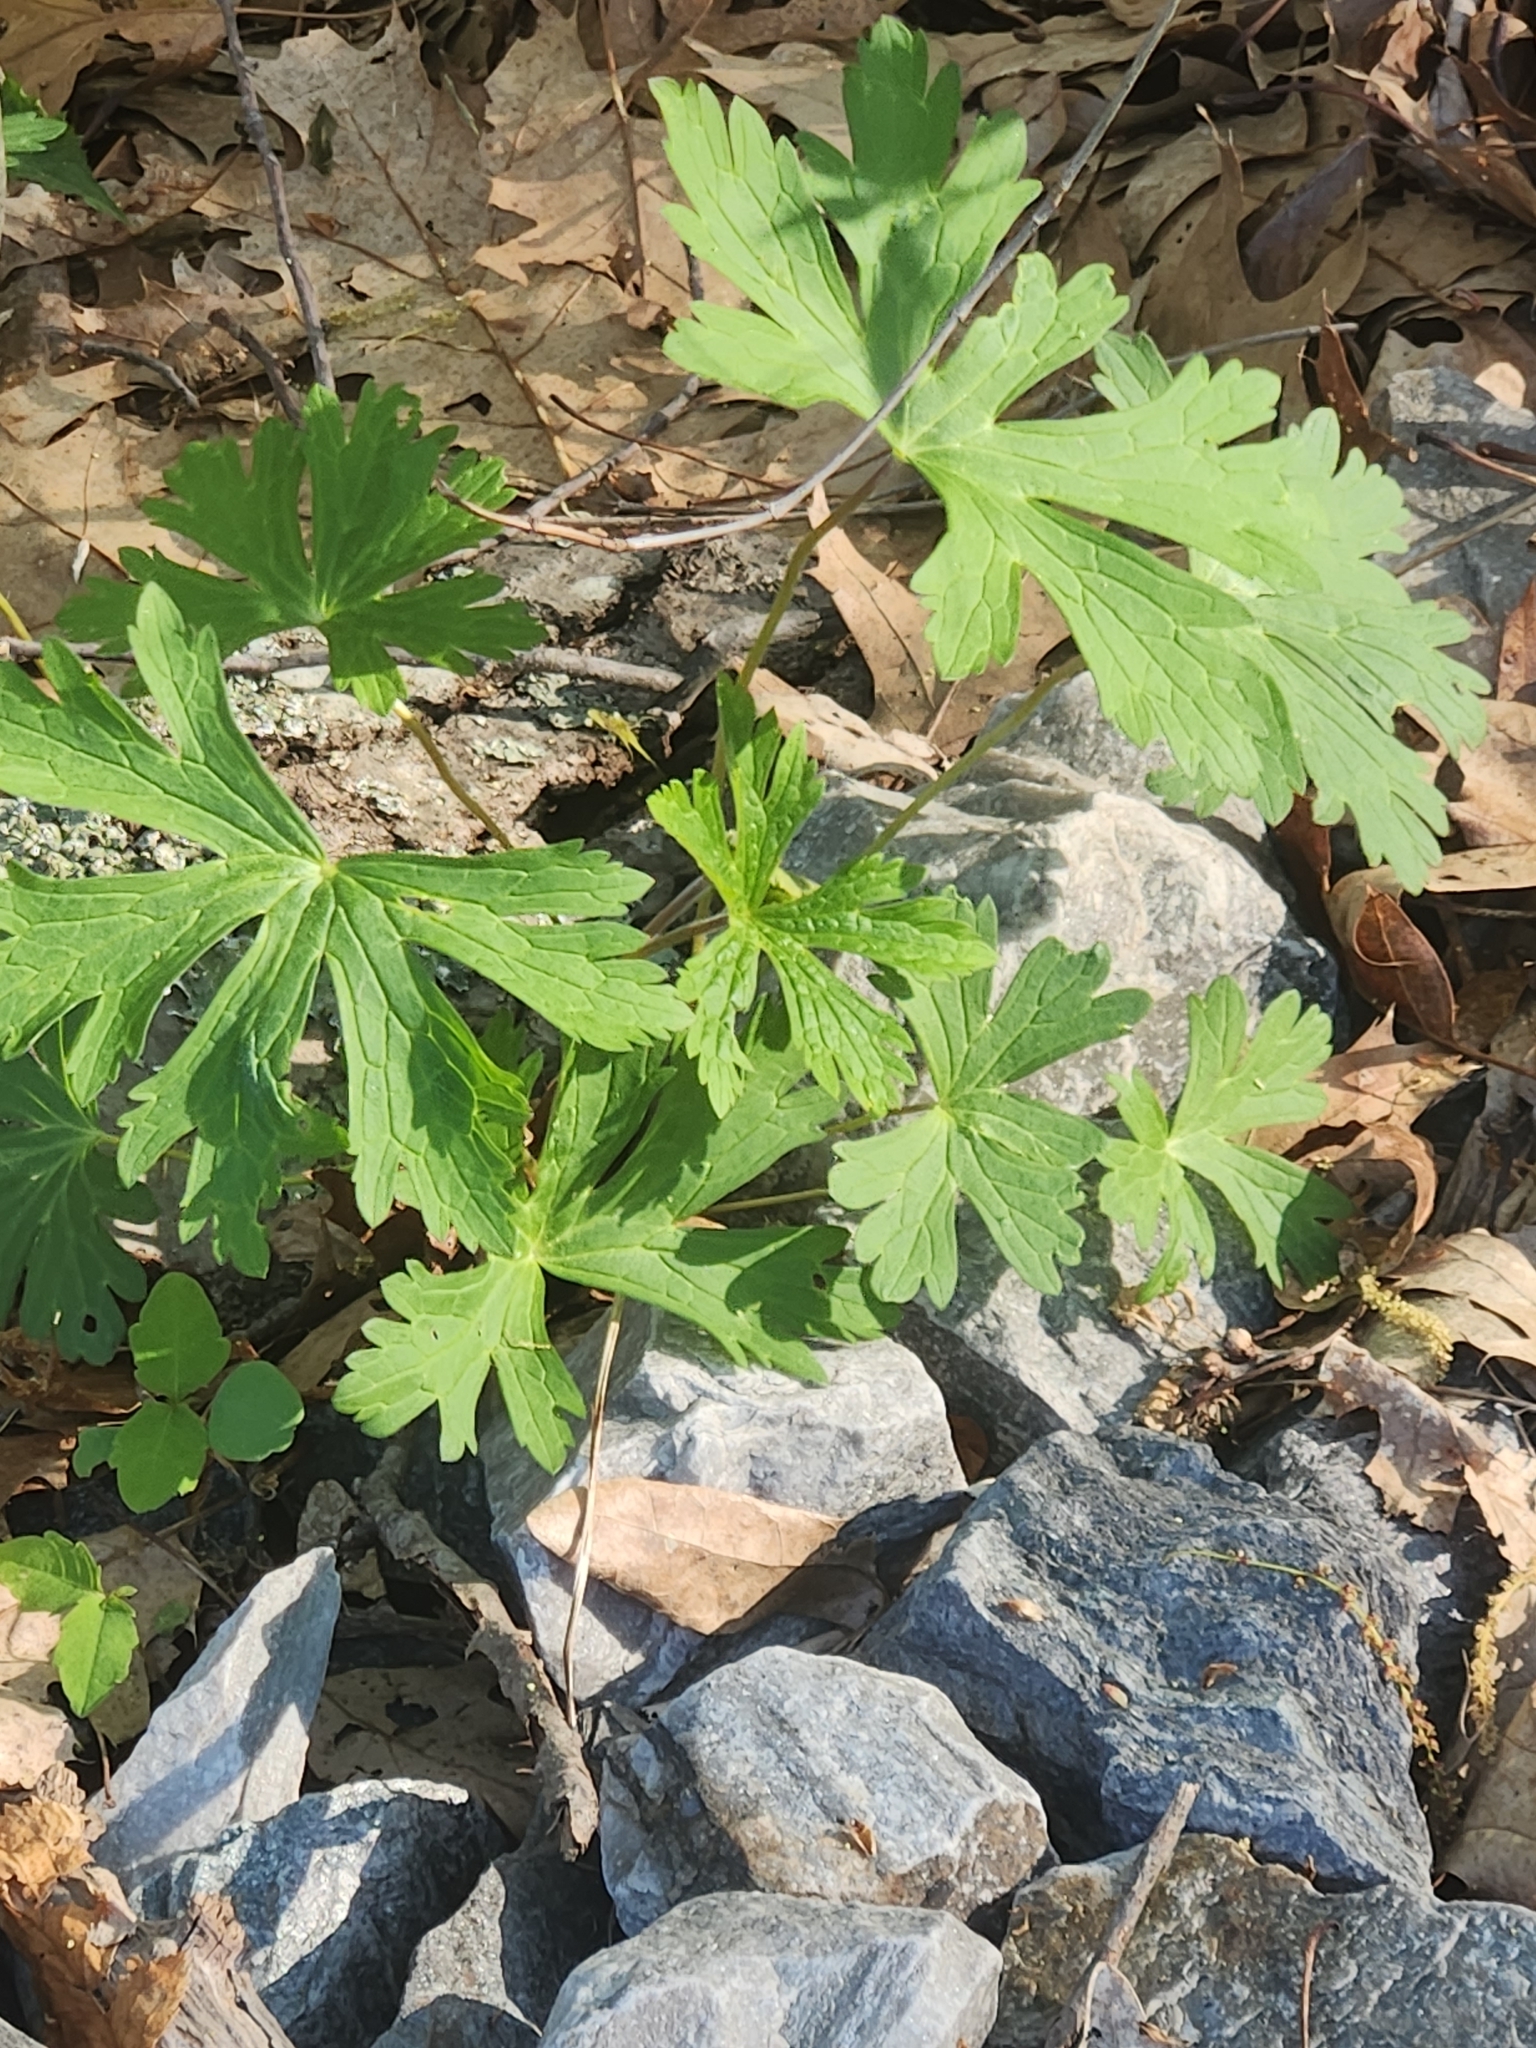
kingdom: Plantae
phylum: Tracheophyta
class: Magnoliopsida
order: Geraniales
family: Geraniaceae
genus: Geranium
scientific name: Geranium maculatum
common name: Spotted geranium
